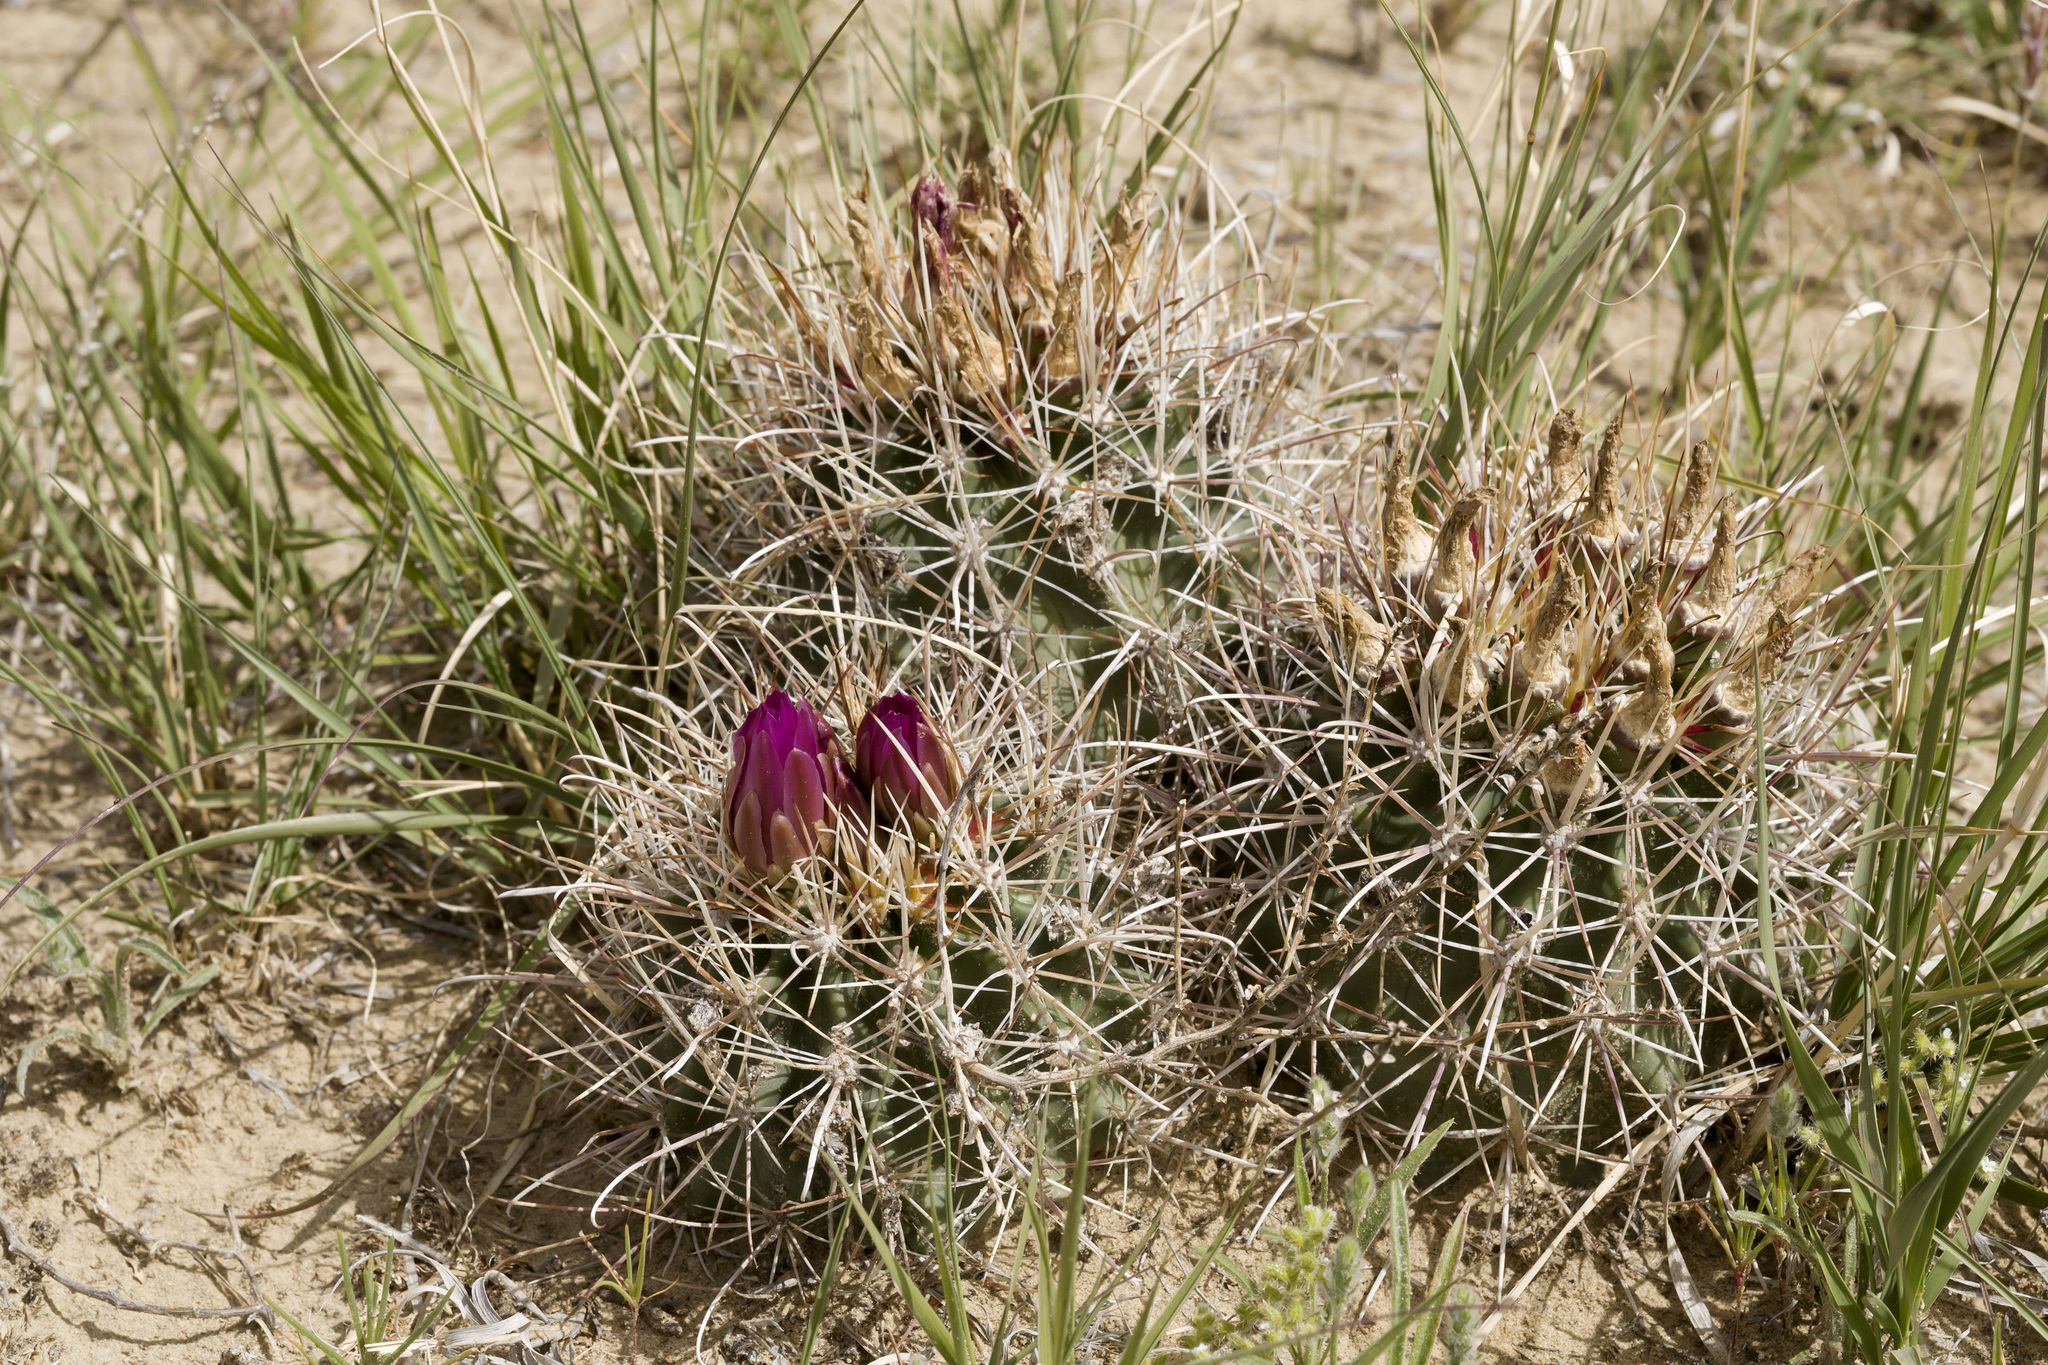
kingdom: Plantae
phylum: Tracheophyta
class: Magnoliopsida
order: Caryophyllales
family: Cactaceae
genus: Sclerocactus
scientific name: Sclerocactus cloverae
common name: Clover's eagle-claw cactus
